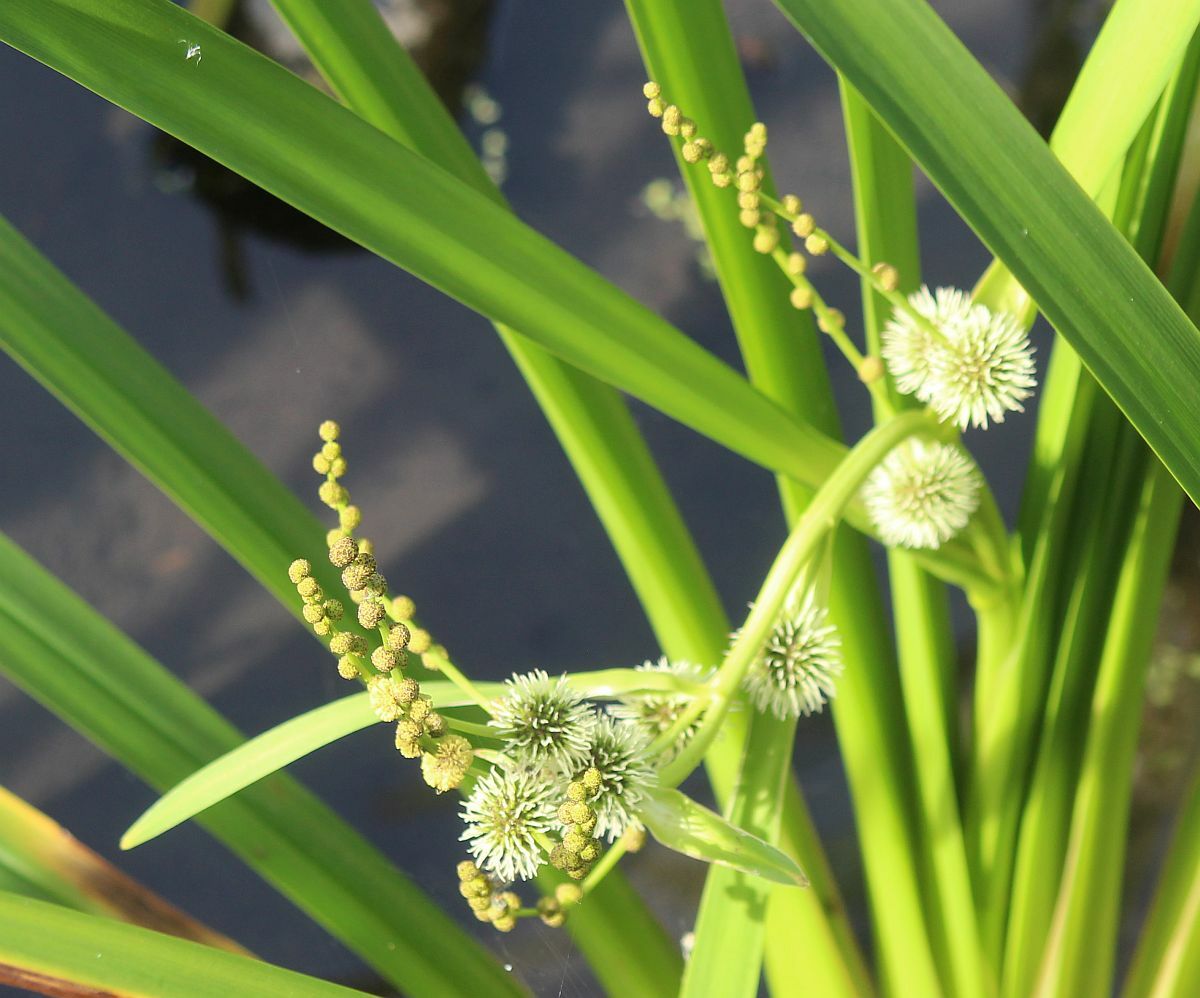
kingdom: Plantae
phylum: Tracheophyta
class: Liliopsida
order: Poales
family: Typhaceae
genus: Sparganium
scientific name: Sparganium erectum
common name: Branched bur-reed
